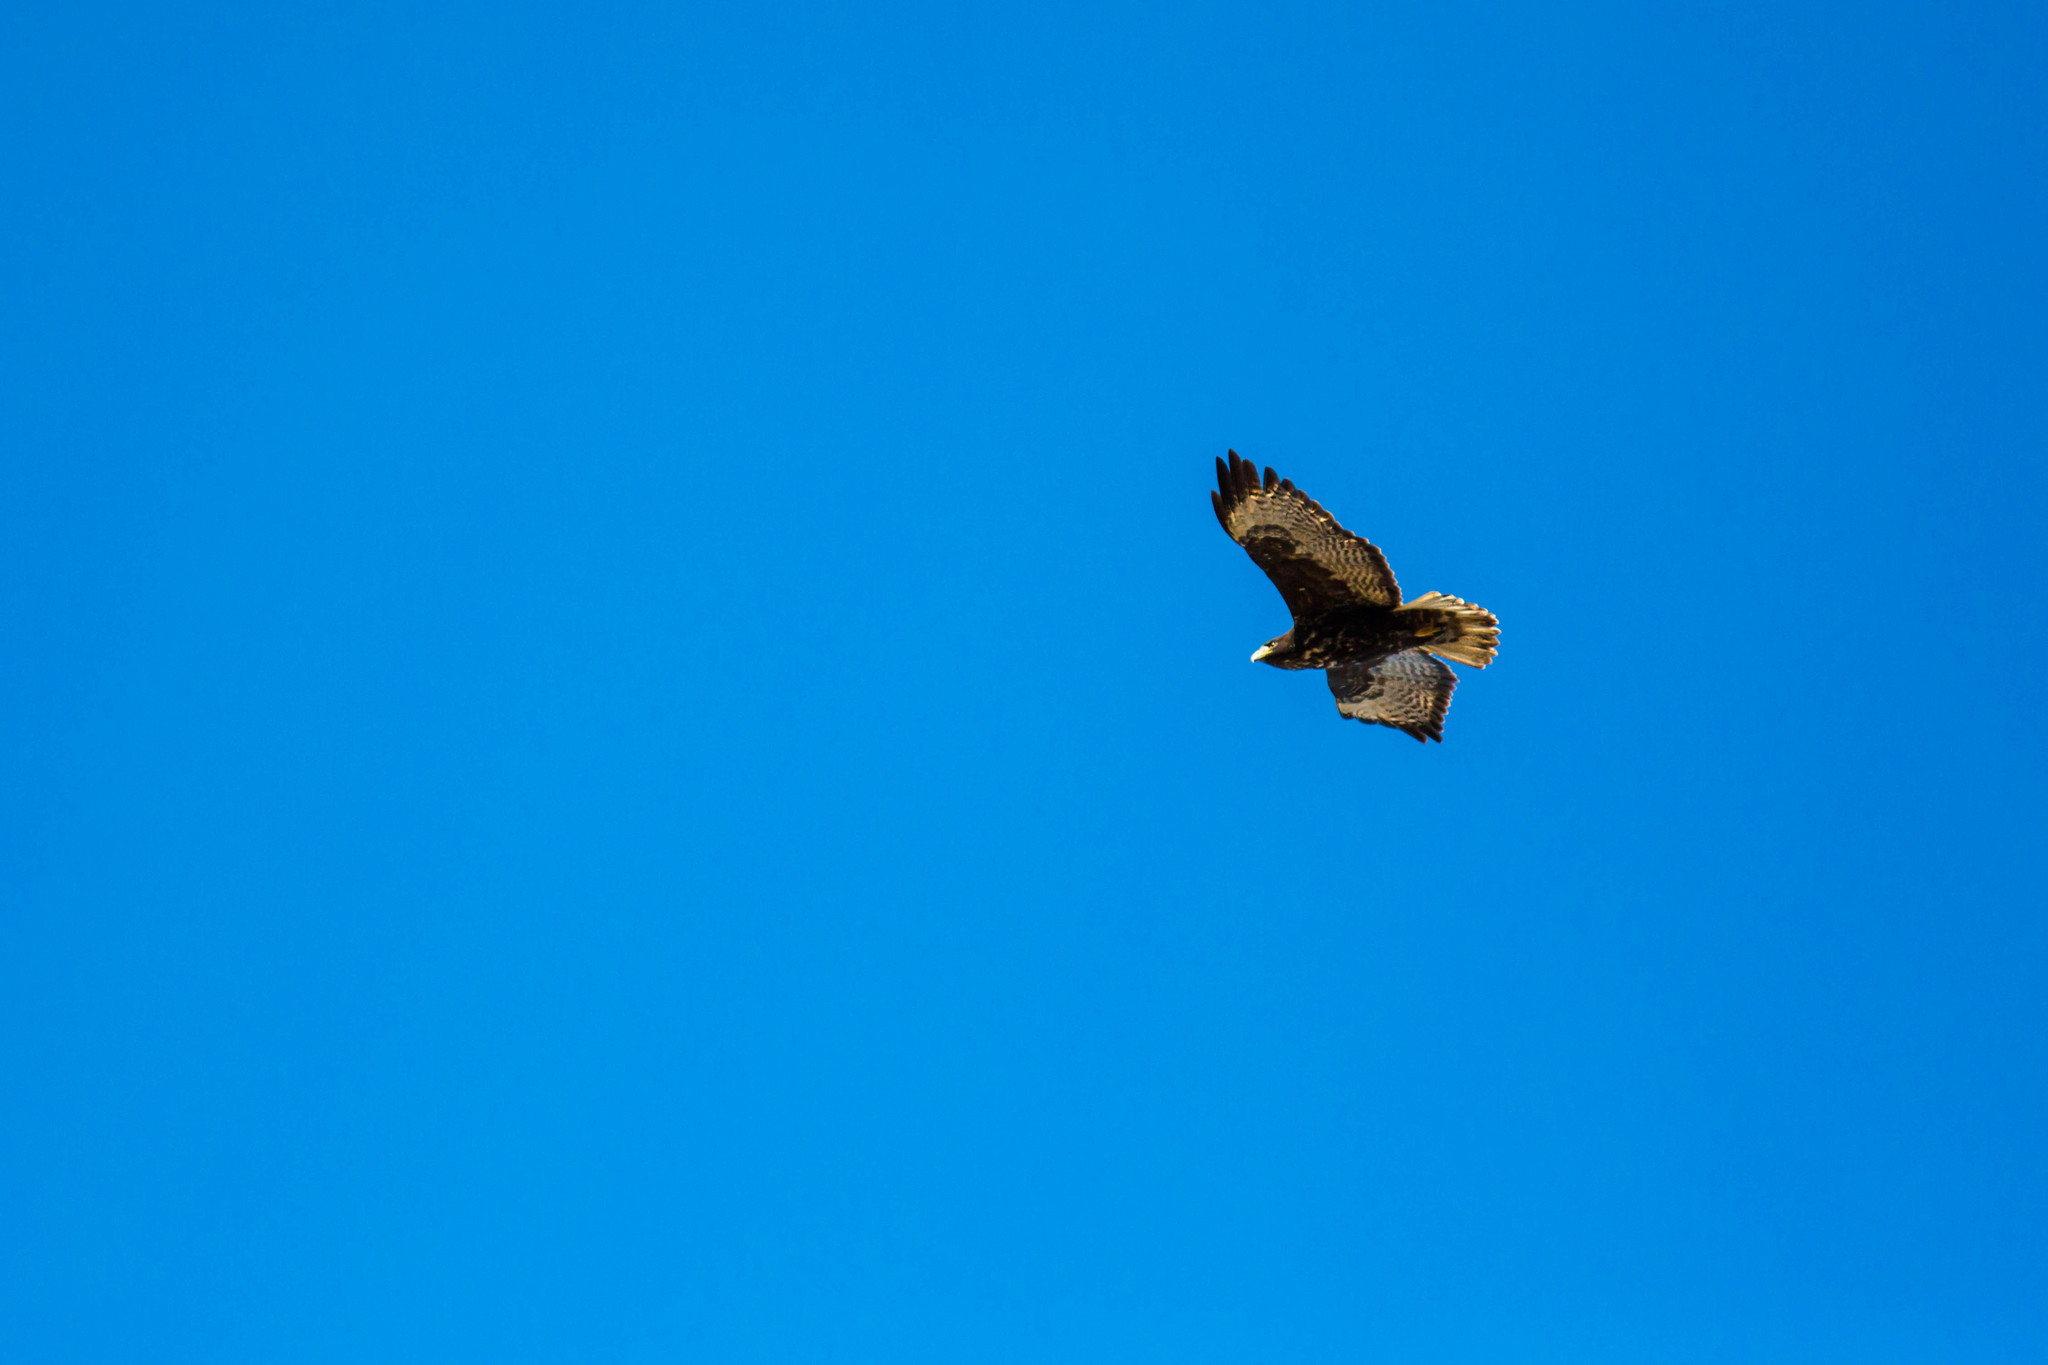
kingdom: Animalia
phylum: Chordata
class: Aves
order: Accipitriformes
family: Accipitridae
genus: Buteo
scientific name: Buteo jamaicensis
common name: Red-tailed hawk
